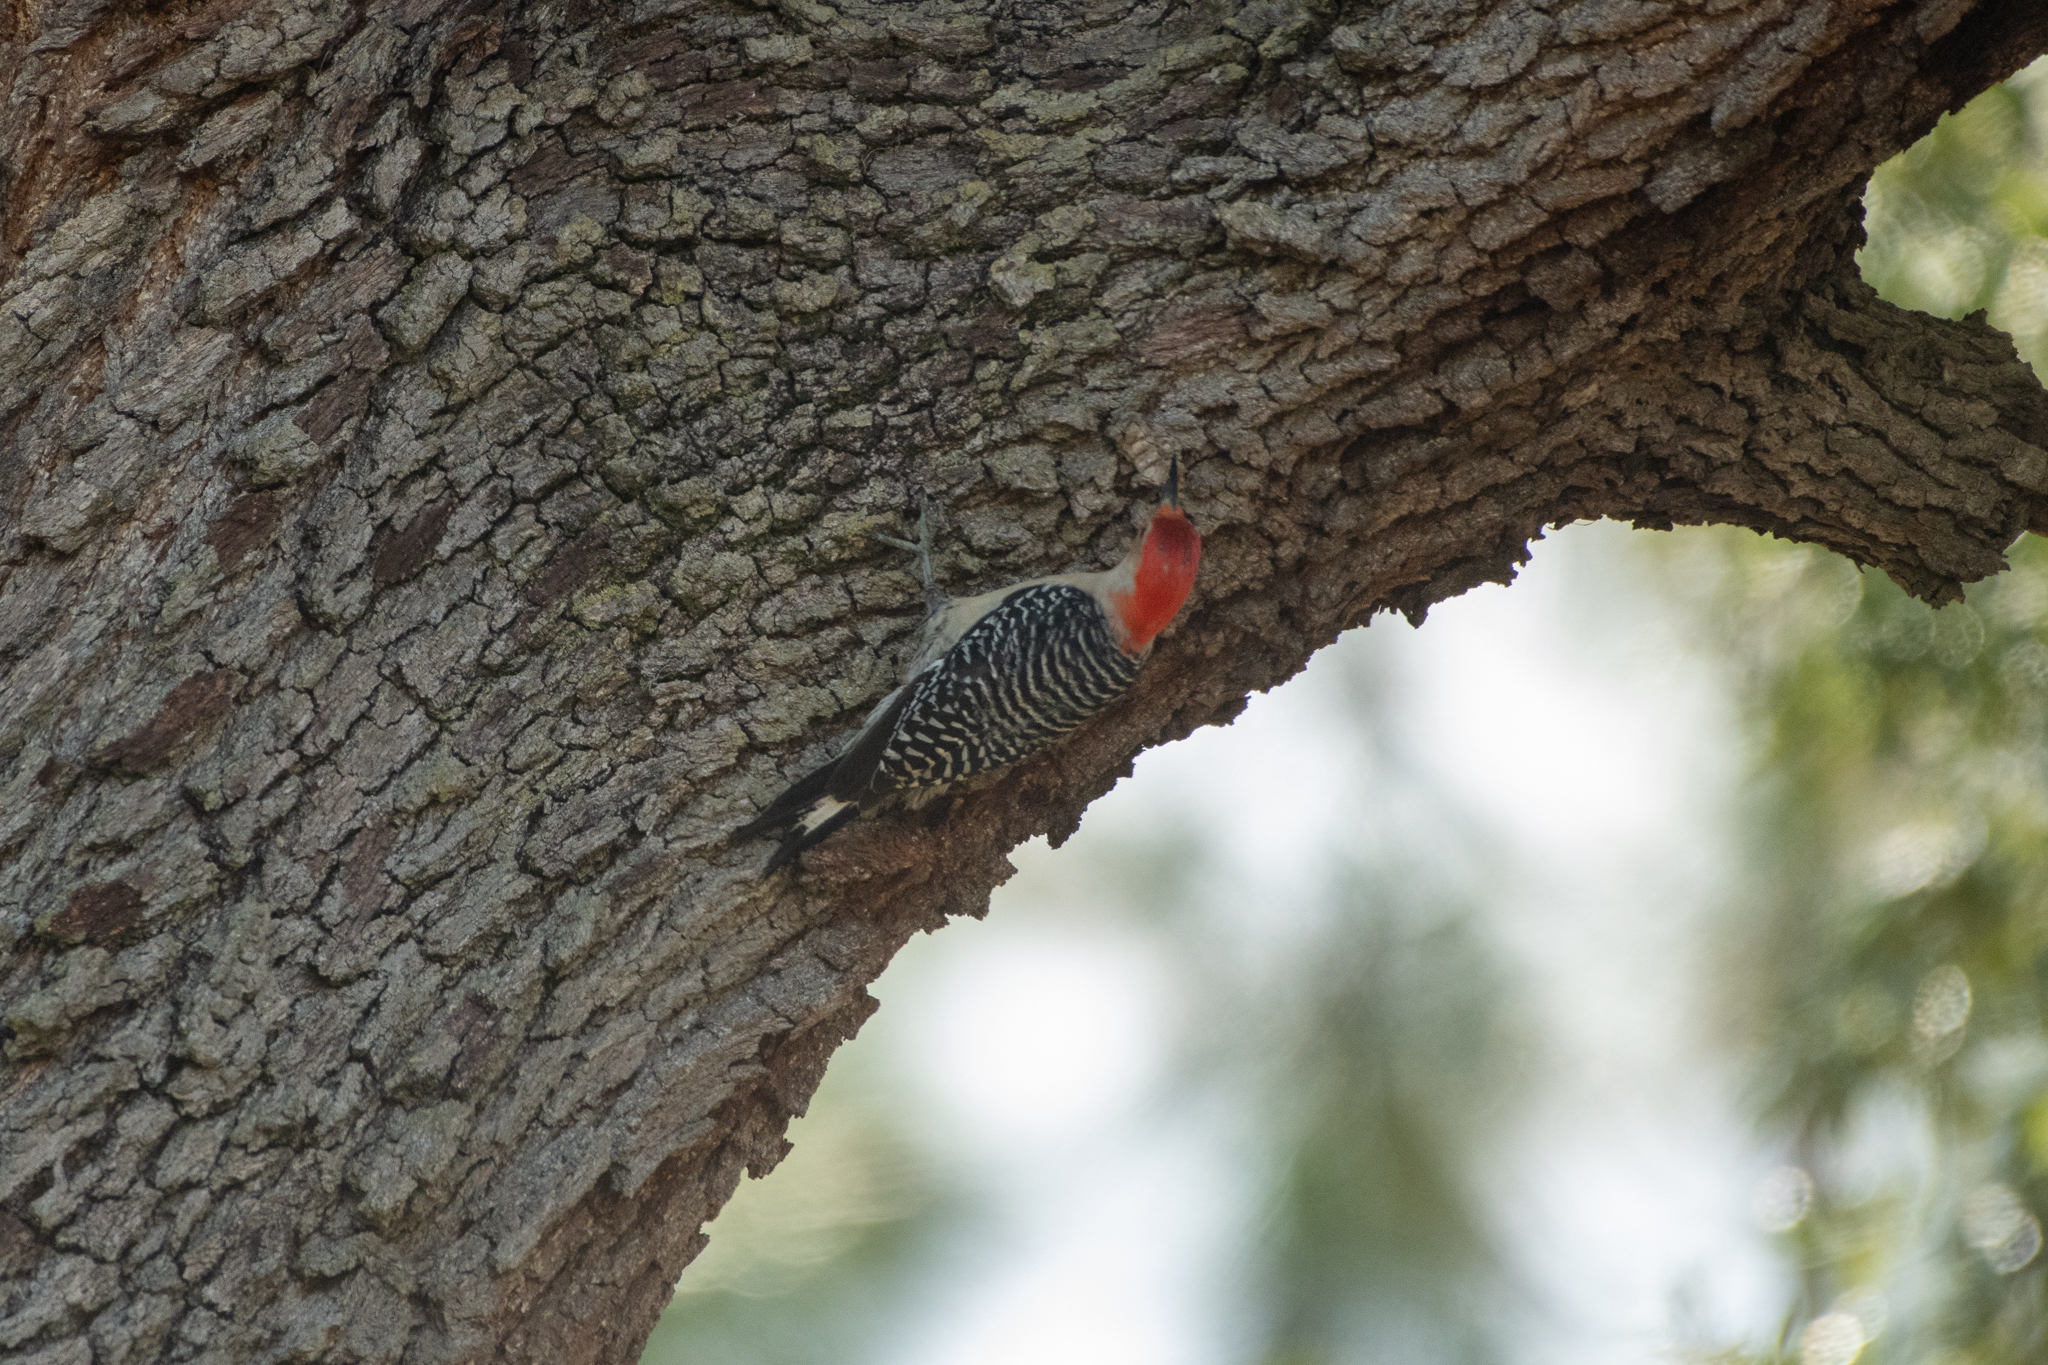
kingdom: Animalia
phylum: Chordata
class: Aves
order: Piciformes
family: Picidae
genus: Melanerpes
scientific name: Melanerpes carolinus
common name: Red-bellied woodpecker
